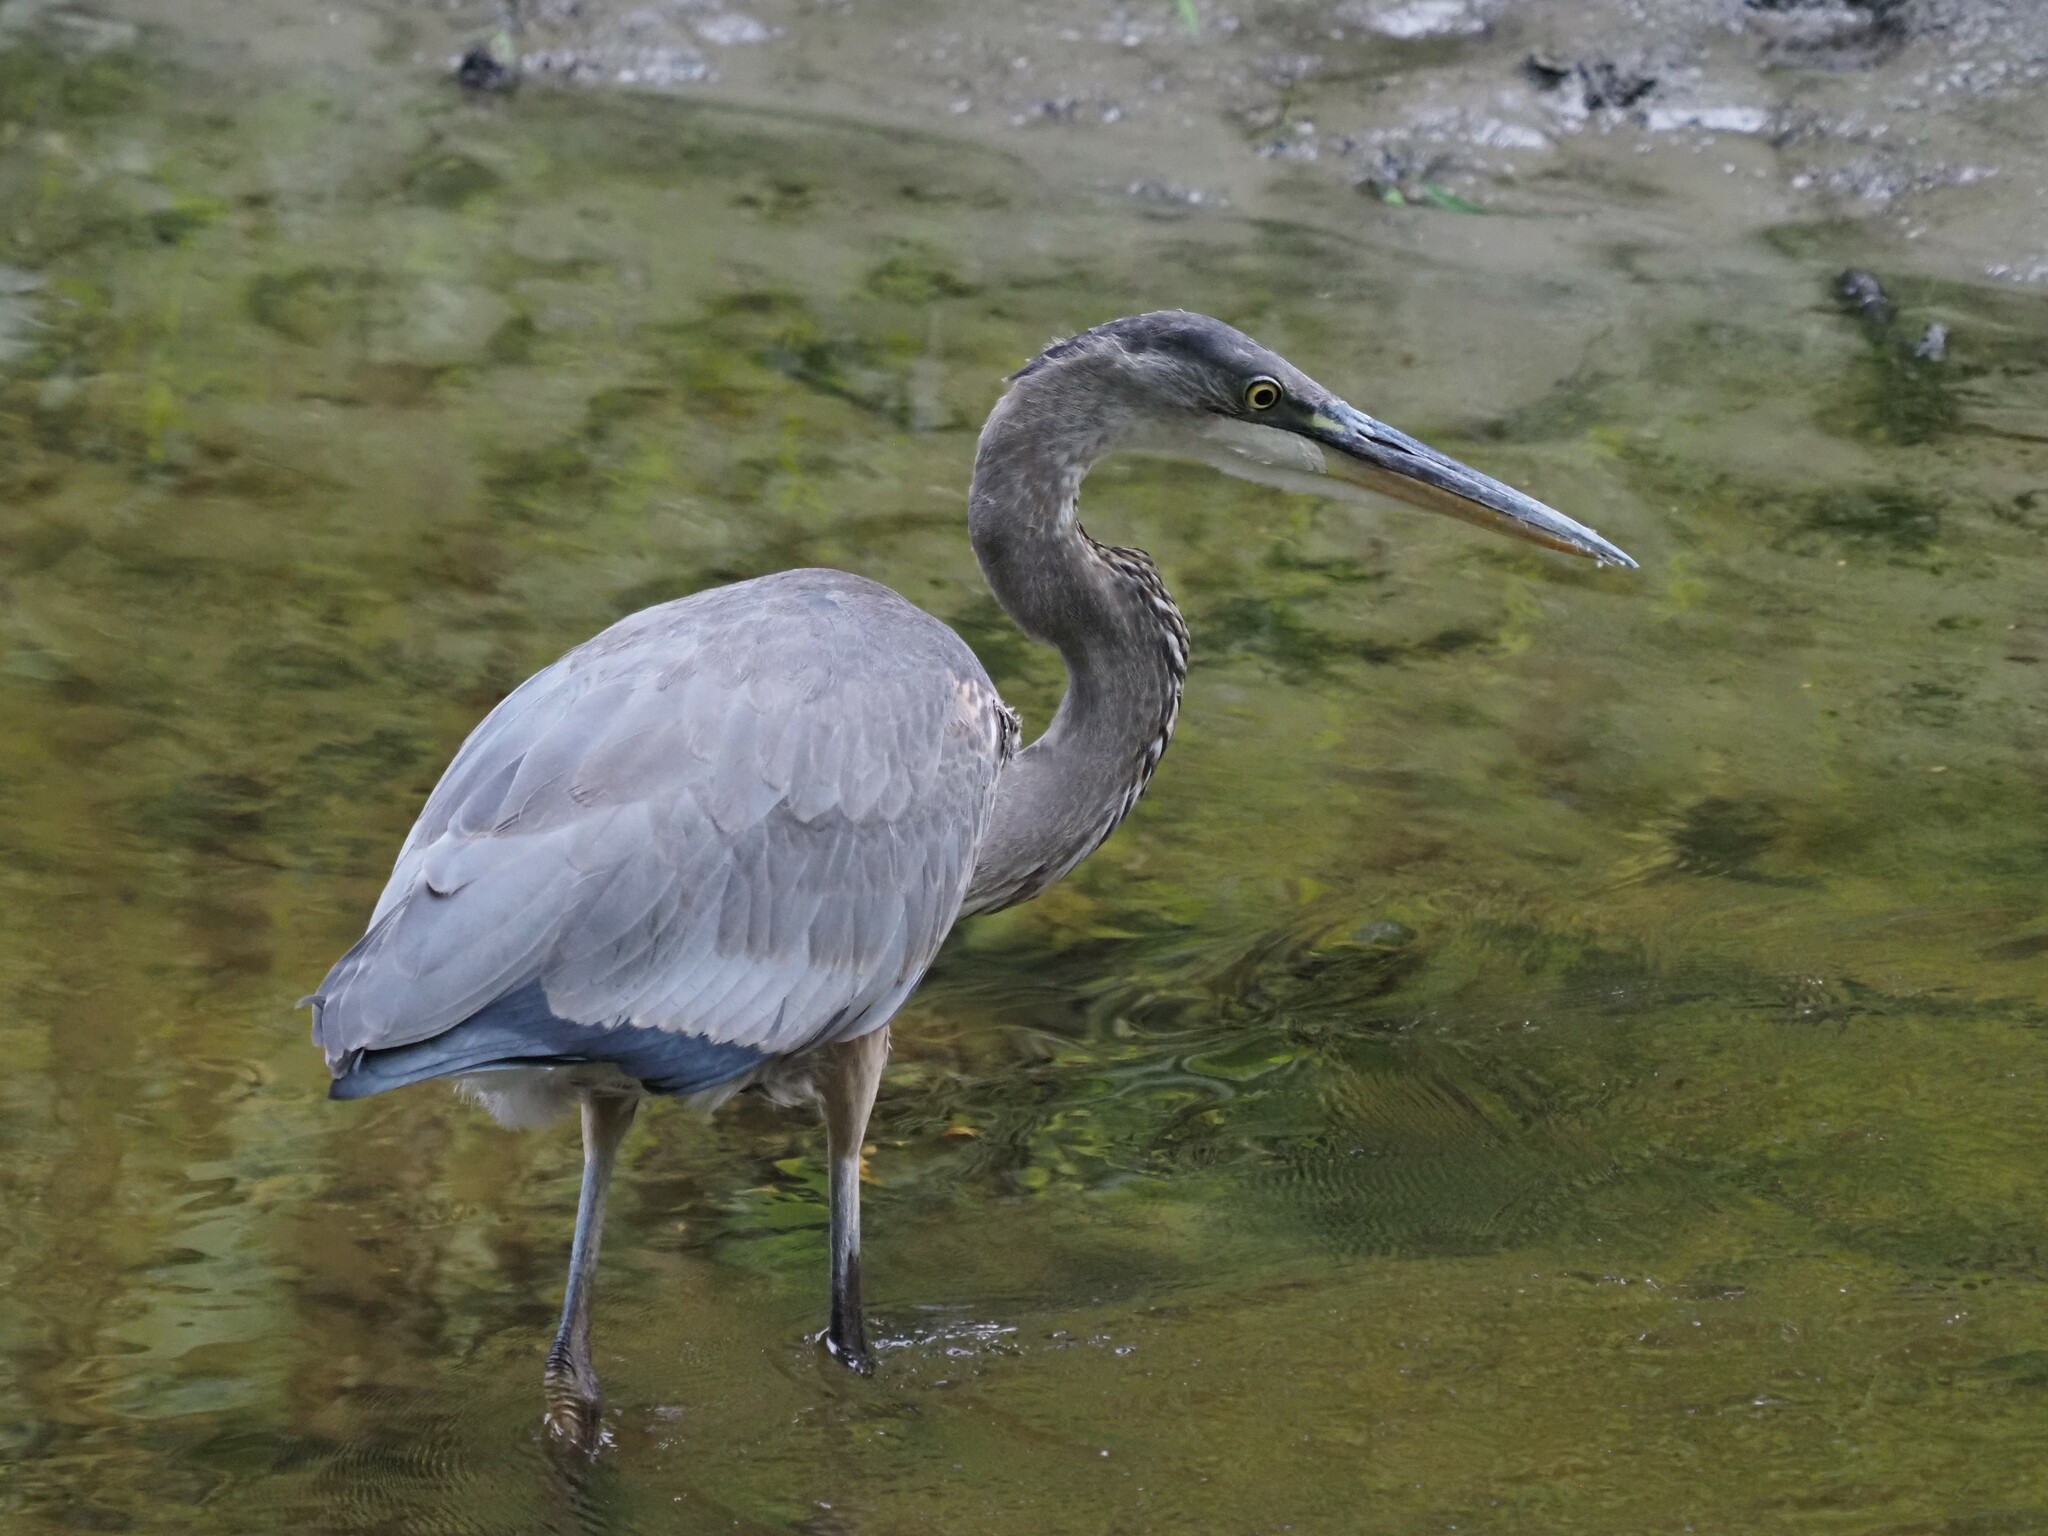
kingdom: Animalia
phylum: Chordata
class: Aves
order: Pelecaniformes
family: Ardeidae
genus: Ardea
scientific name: Ardea herodias
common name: Great blue heron
